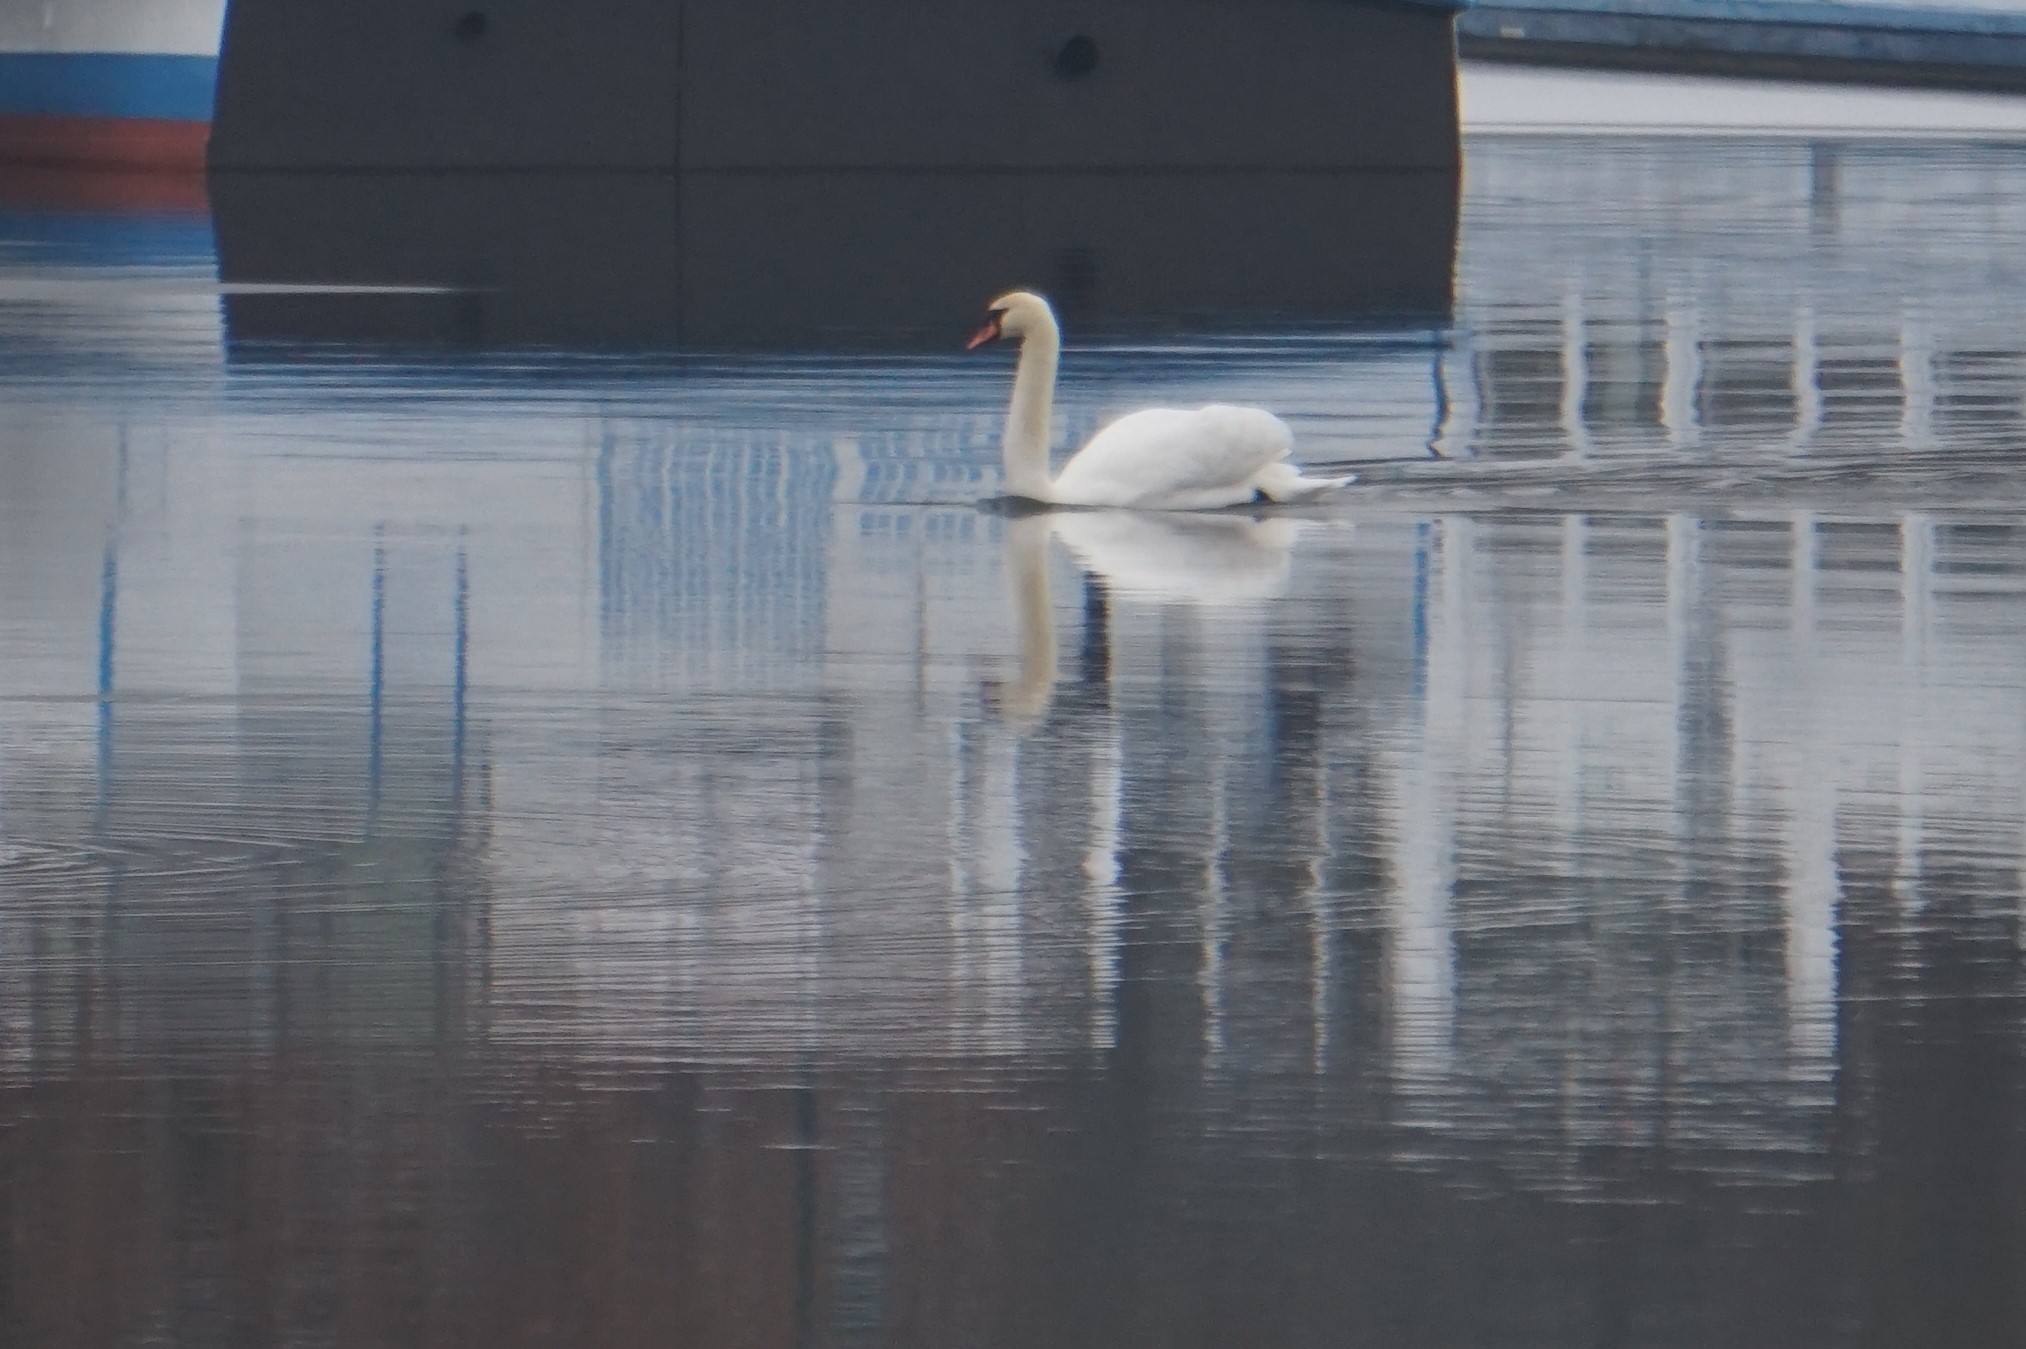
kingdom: Animalia
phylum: Chordata
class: Aves
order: Anseriformes
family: Anatidae
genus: Cygnus
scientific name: Cygnus olor
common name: Mute swan
